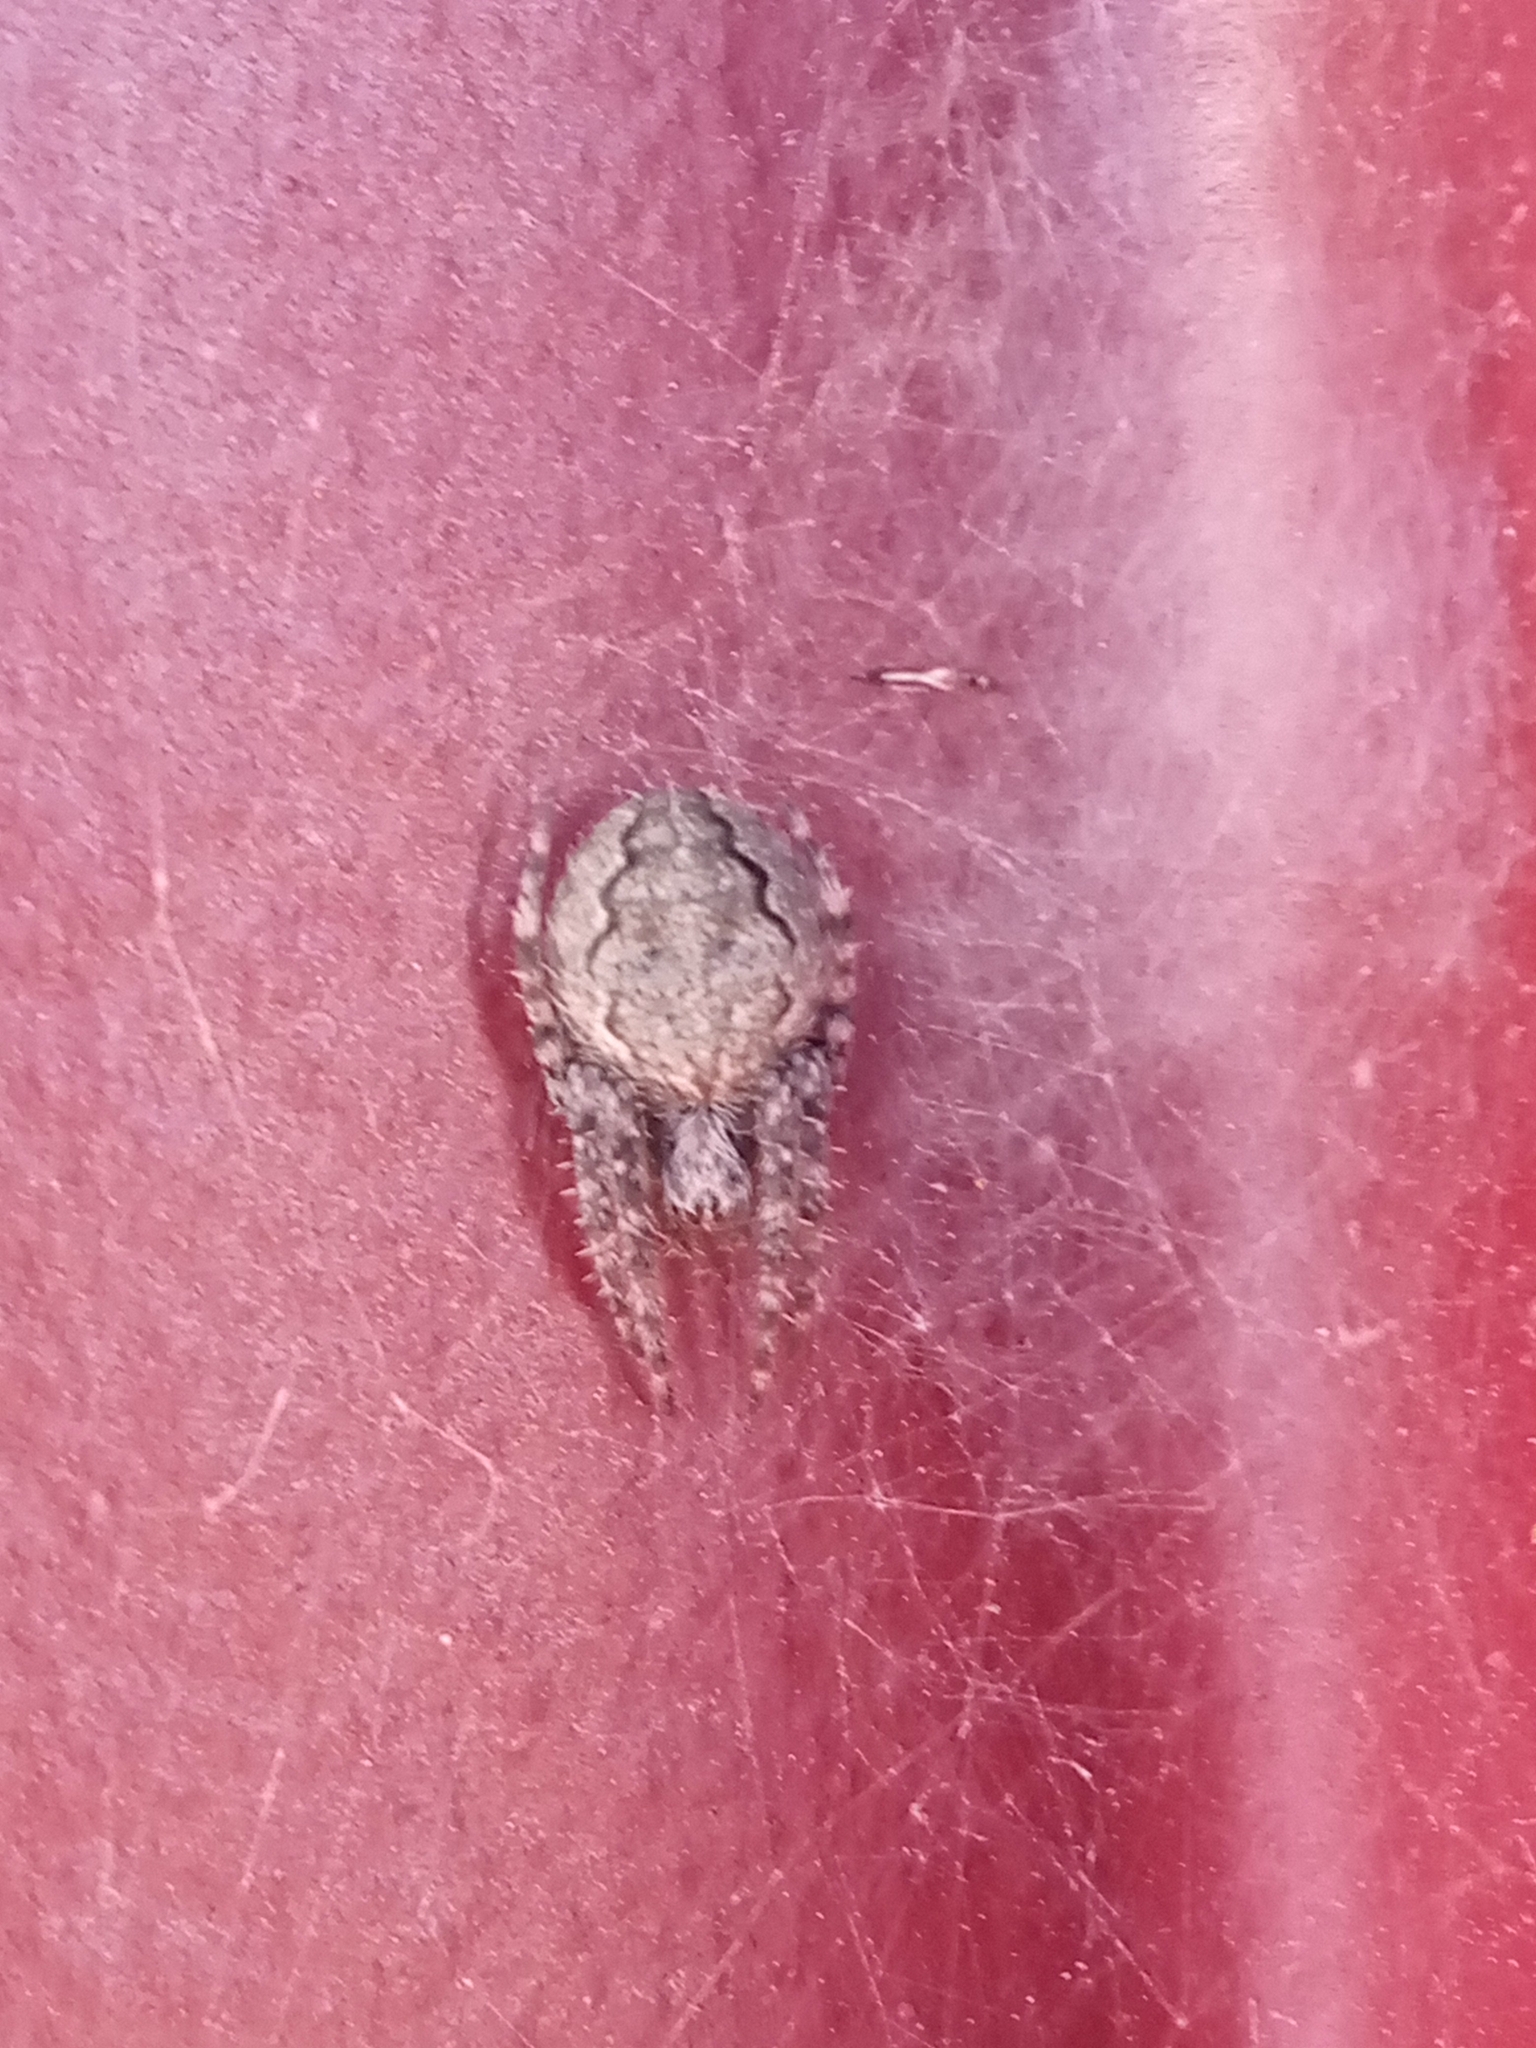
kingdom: Animalia
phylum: Arthropoda
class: Arachnida
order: Araneae
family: Araneidae
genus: Larinioides
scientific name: Larinioides ixobolus
